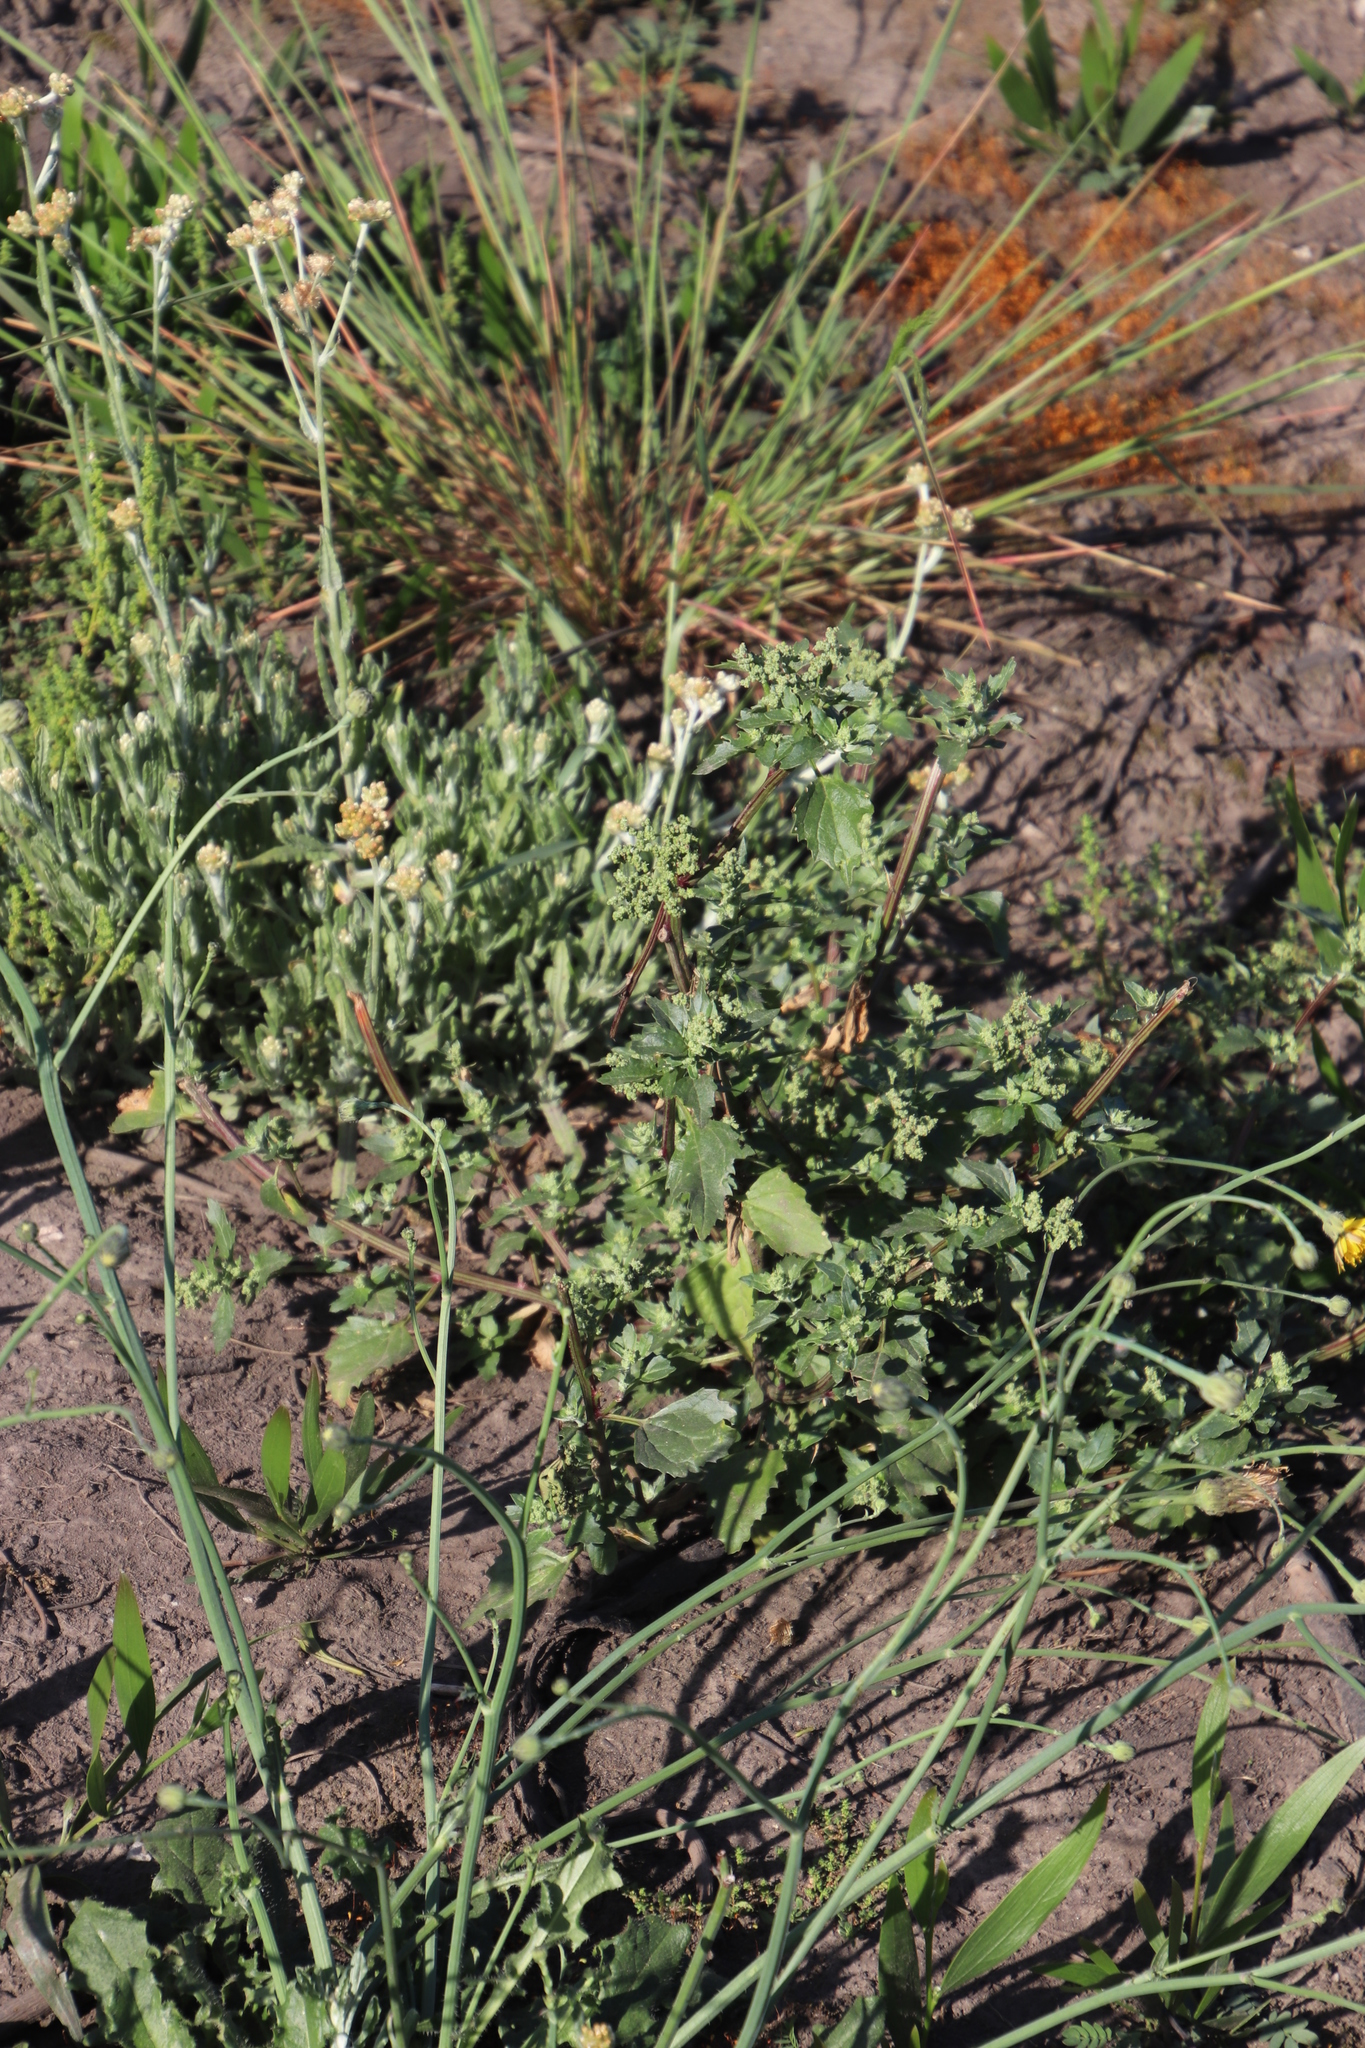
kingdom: Plantae
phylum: Tracheophyta
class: Magnoliopsida
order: Caryophyllales
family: Amaranthaceae
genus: Chenopodiastrum
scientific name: Chenopodiastrum murale
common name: Sowbane
